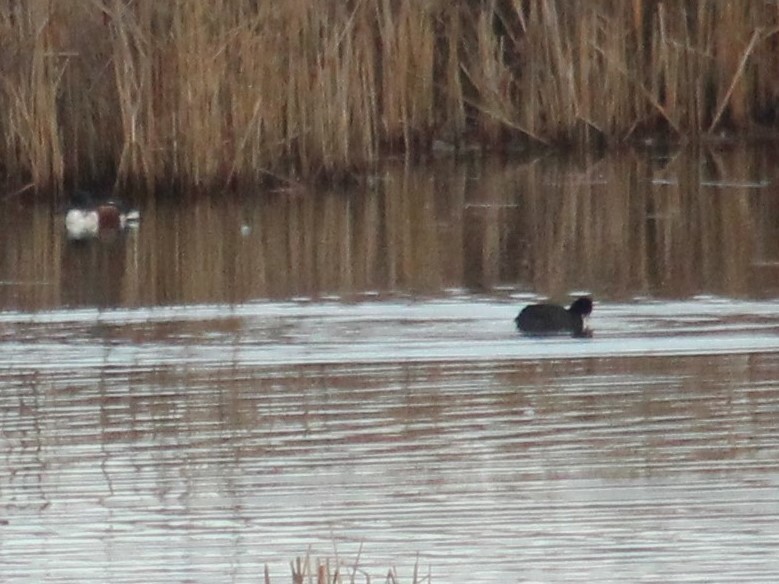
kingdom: Animalia
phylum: Chordata
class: Aves
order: Gruiformes
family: Rallidae
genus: Fulica
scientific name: Fulica atra
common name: Eurasian coot
